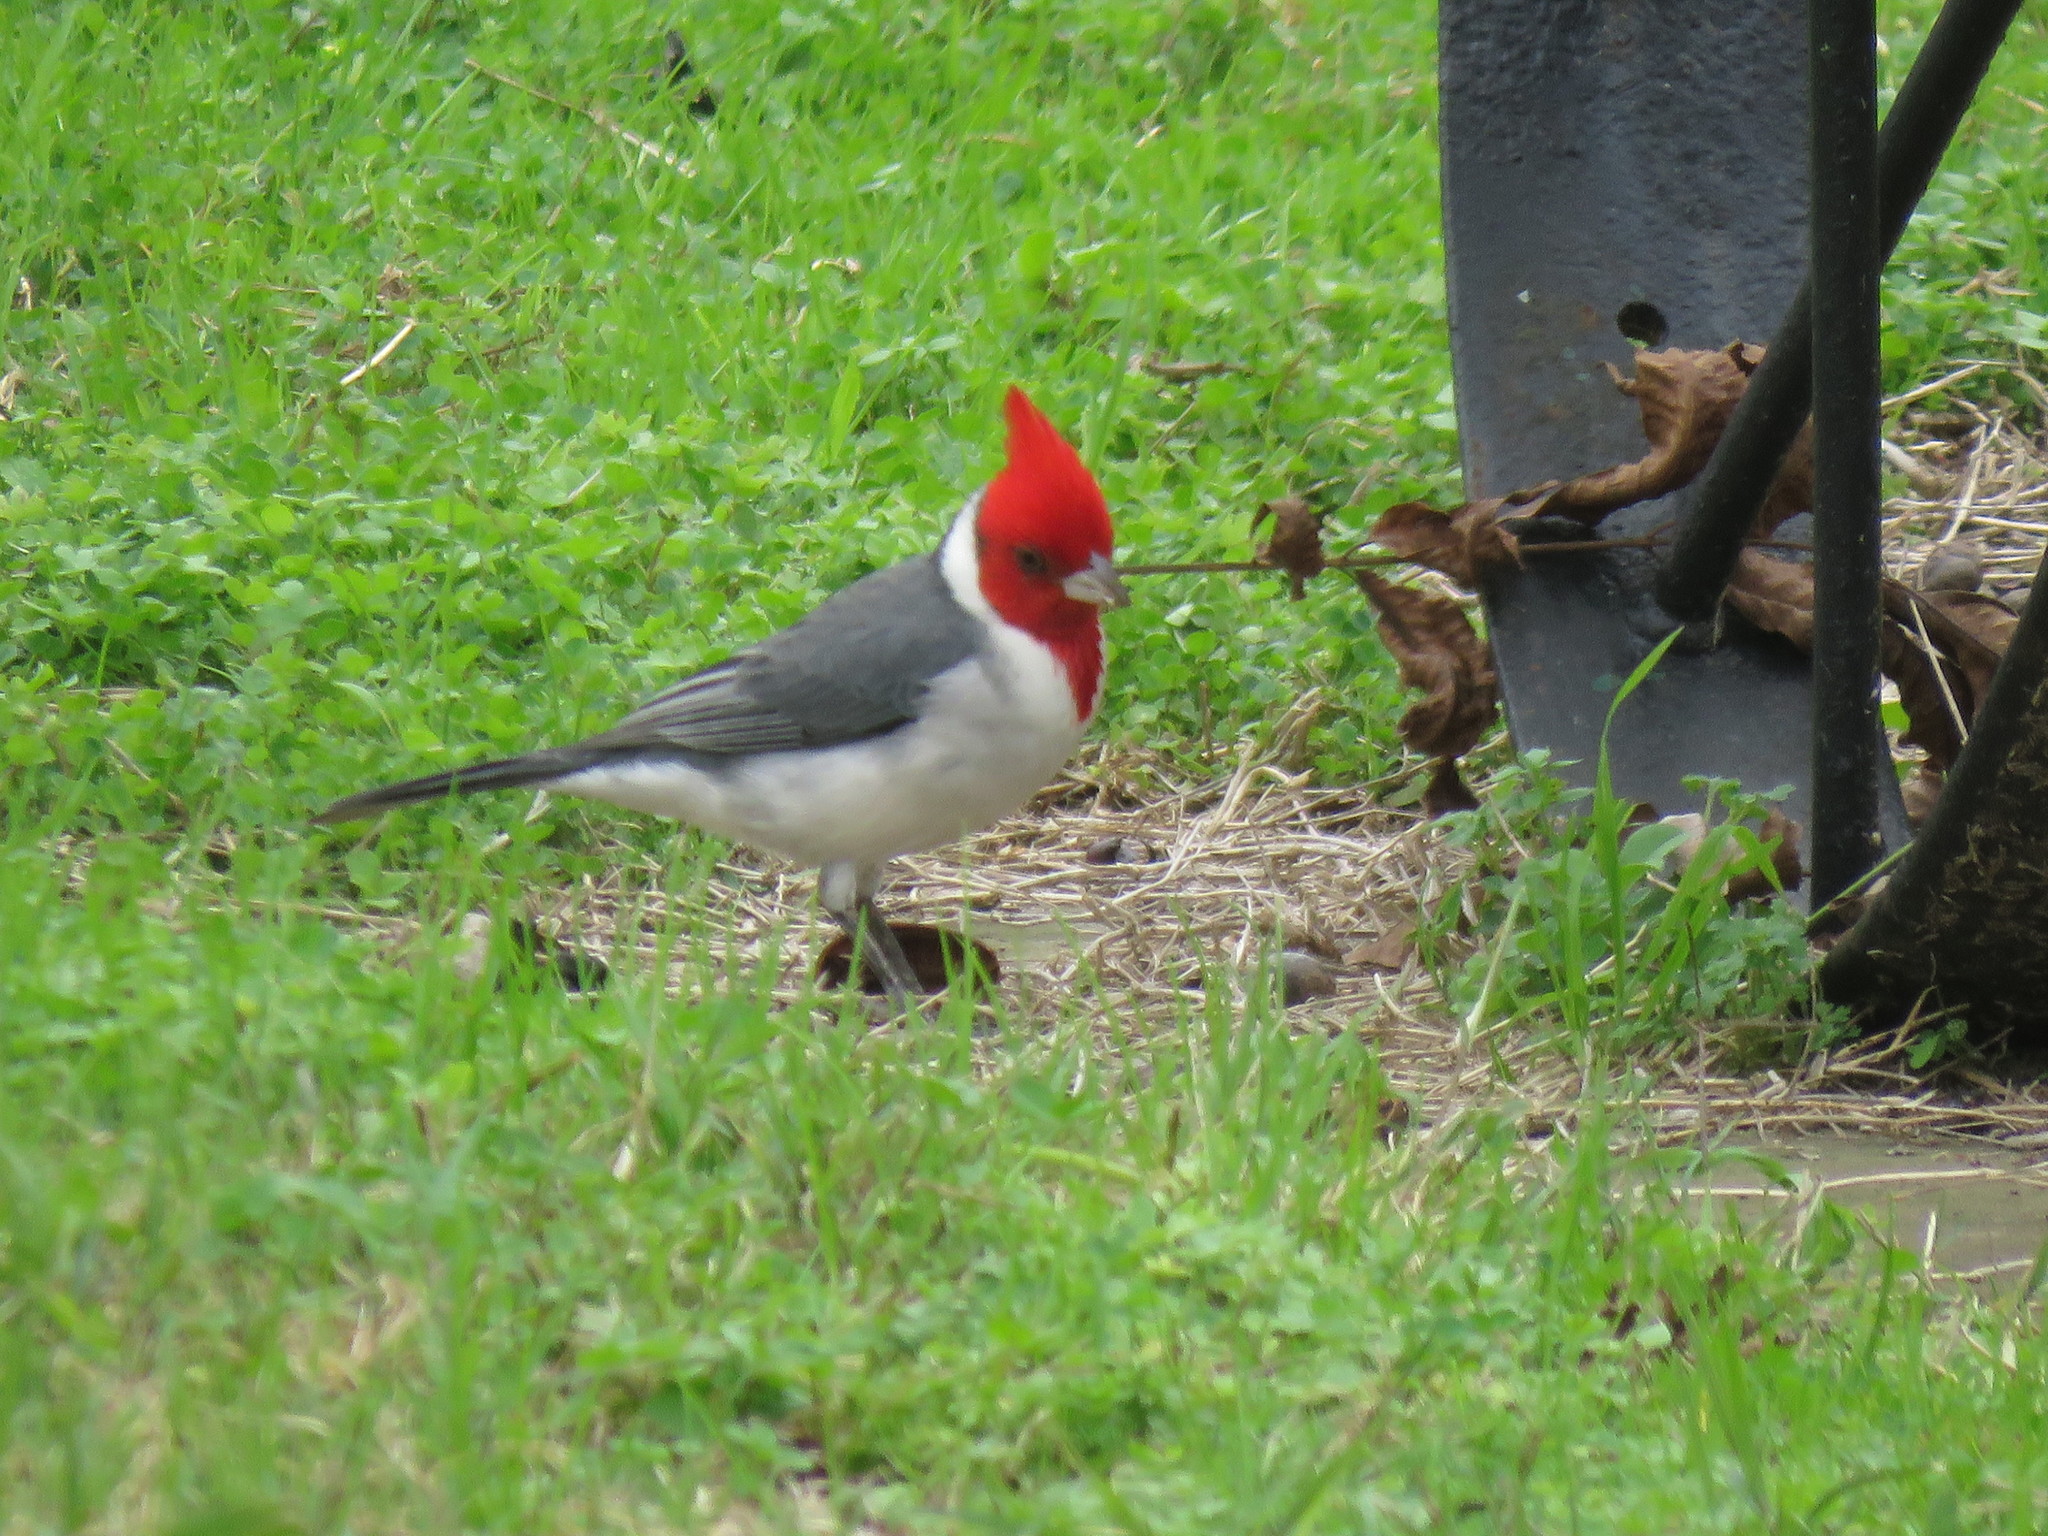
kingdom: Animalia
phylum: Chordata
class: Aves
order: Passeriformes
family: Thraupidae
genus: Paroaria
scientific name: Paroaria coronata
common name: Red-crested cardinal
